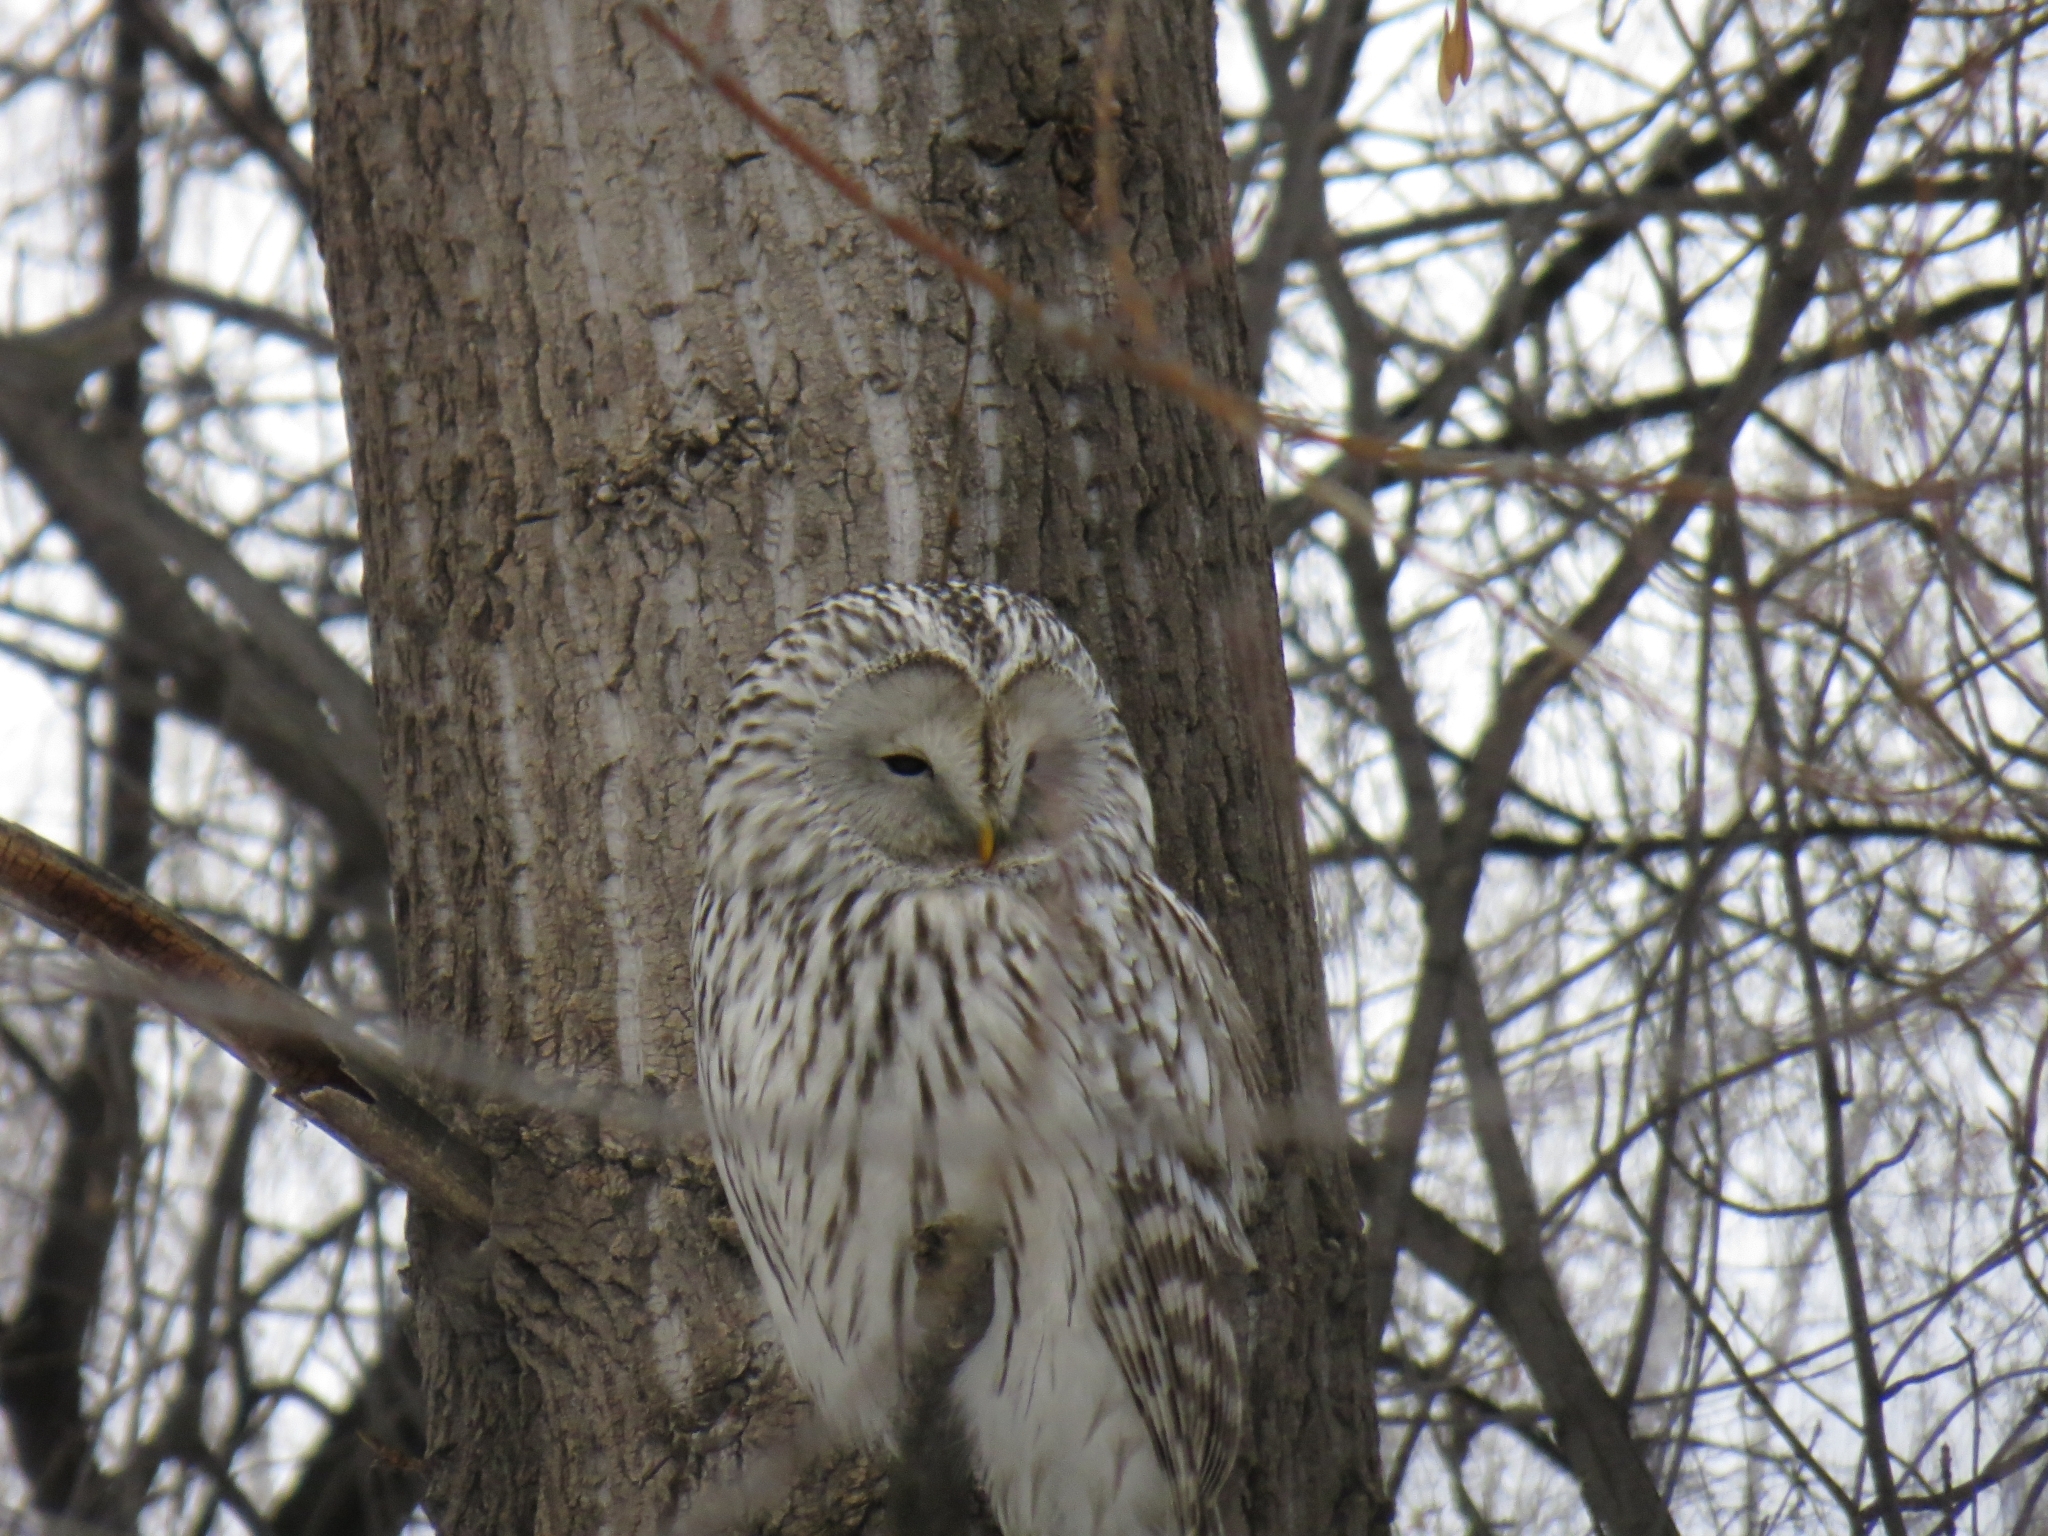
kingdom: Animalia
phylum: Chordata
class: Aves
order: Strigiformes
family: Strigidae
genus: Strix
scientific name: Strix uralensis
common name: Ural owl
